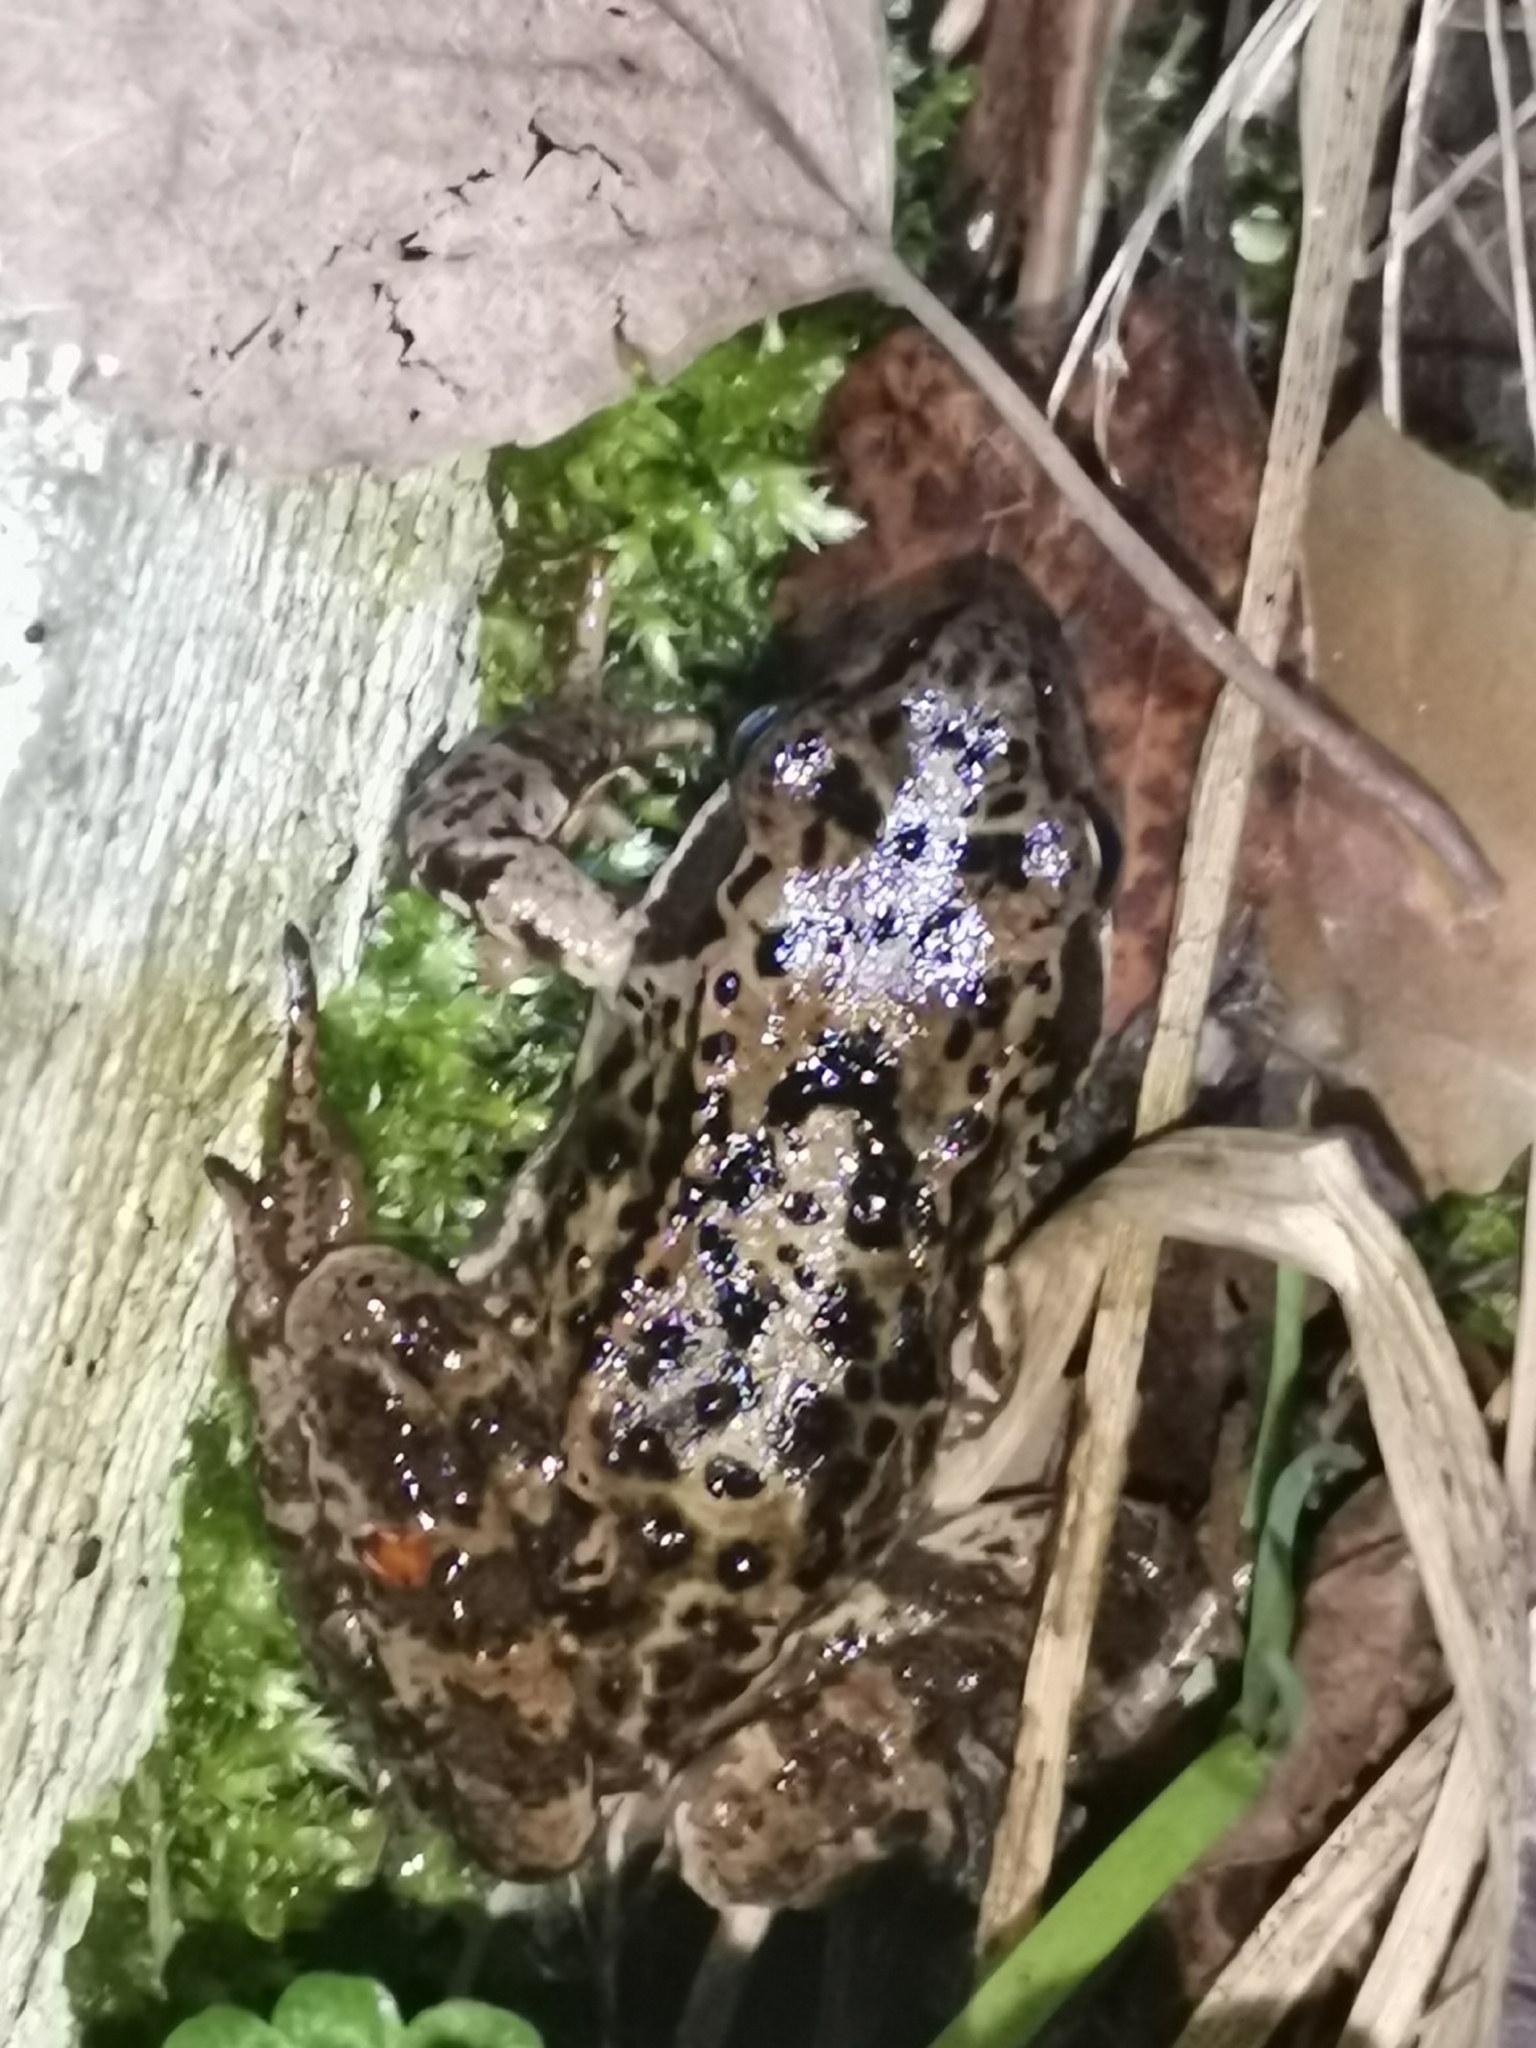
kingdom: Animalia
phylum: Chordata
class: Amphibia
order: Anura
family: Ranidae
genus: Rana
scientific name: Rana temporaria
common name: Common frog
